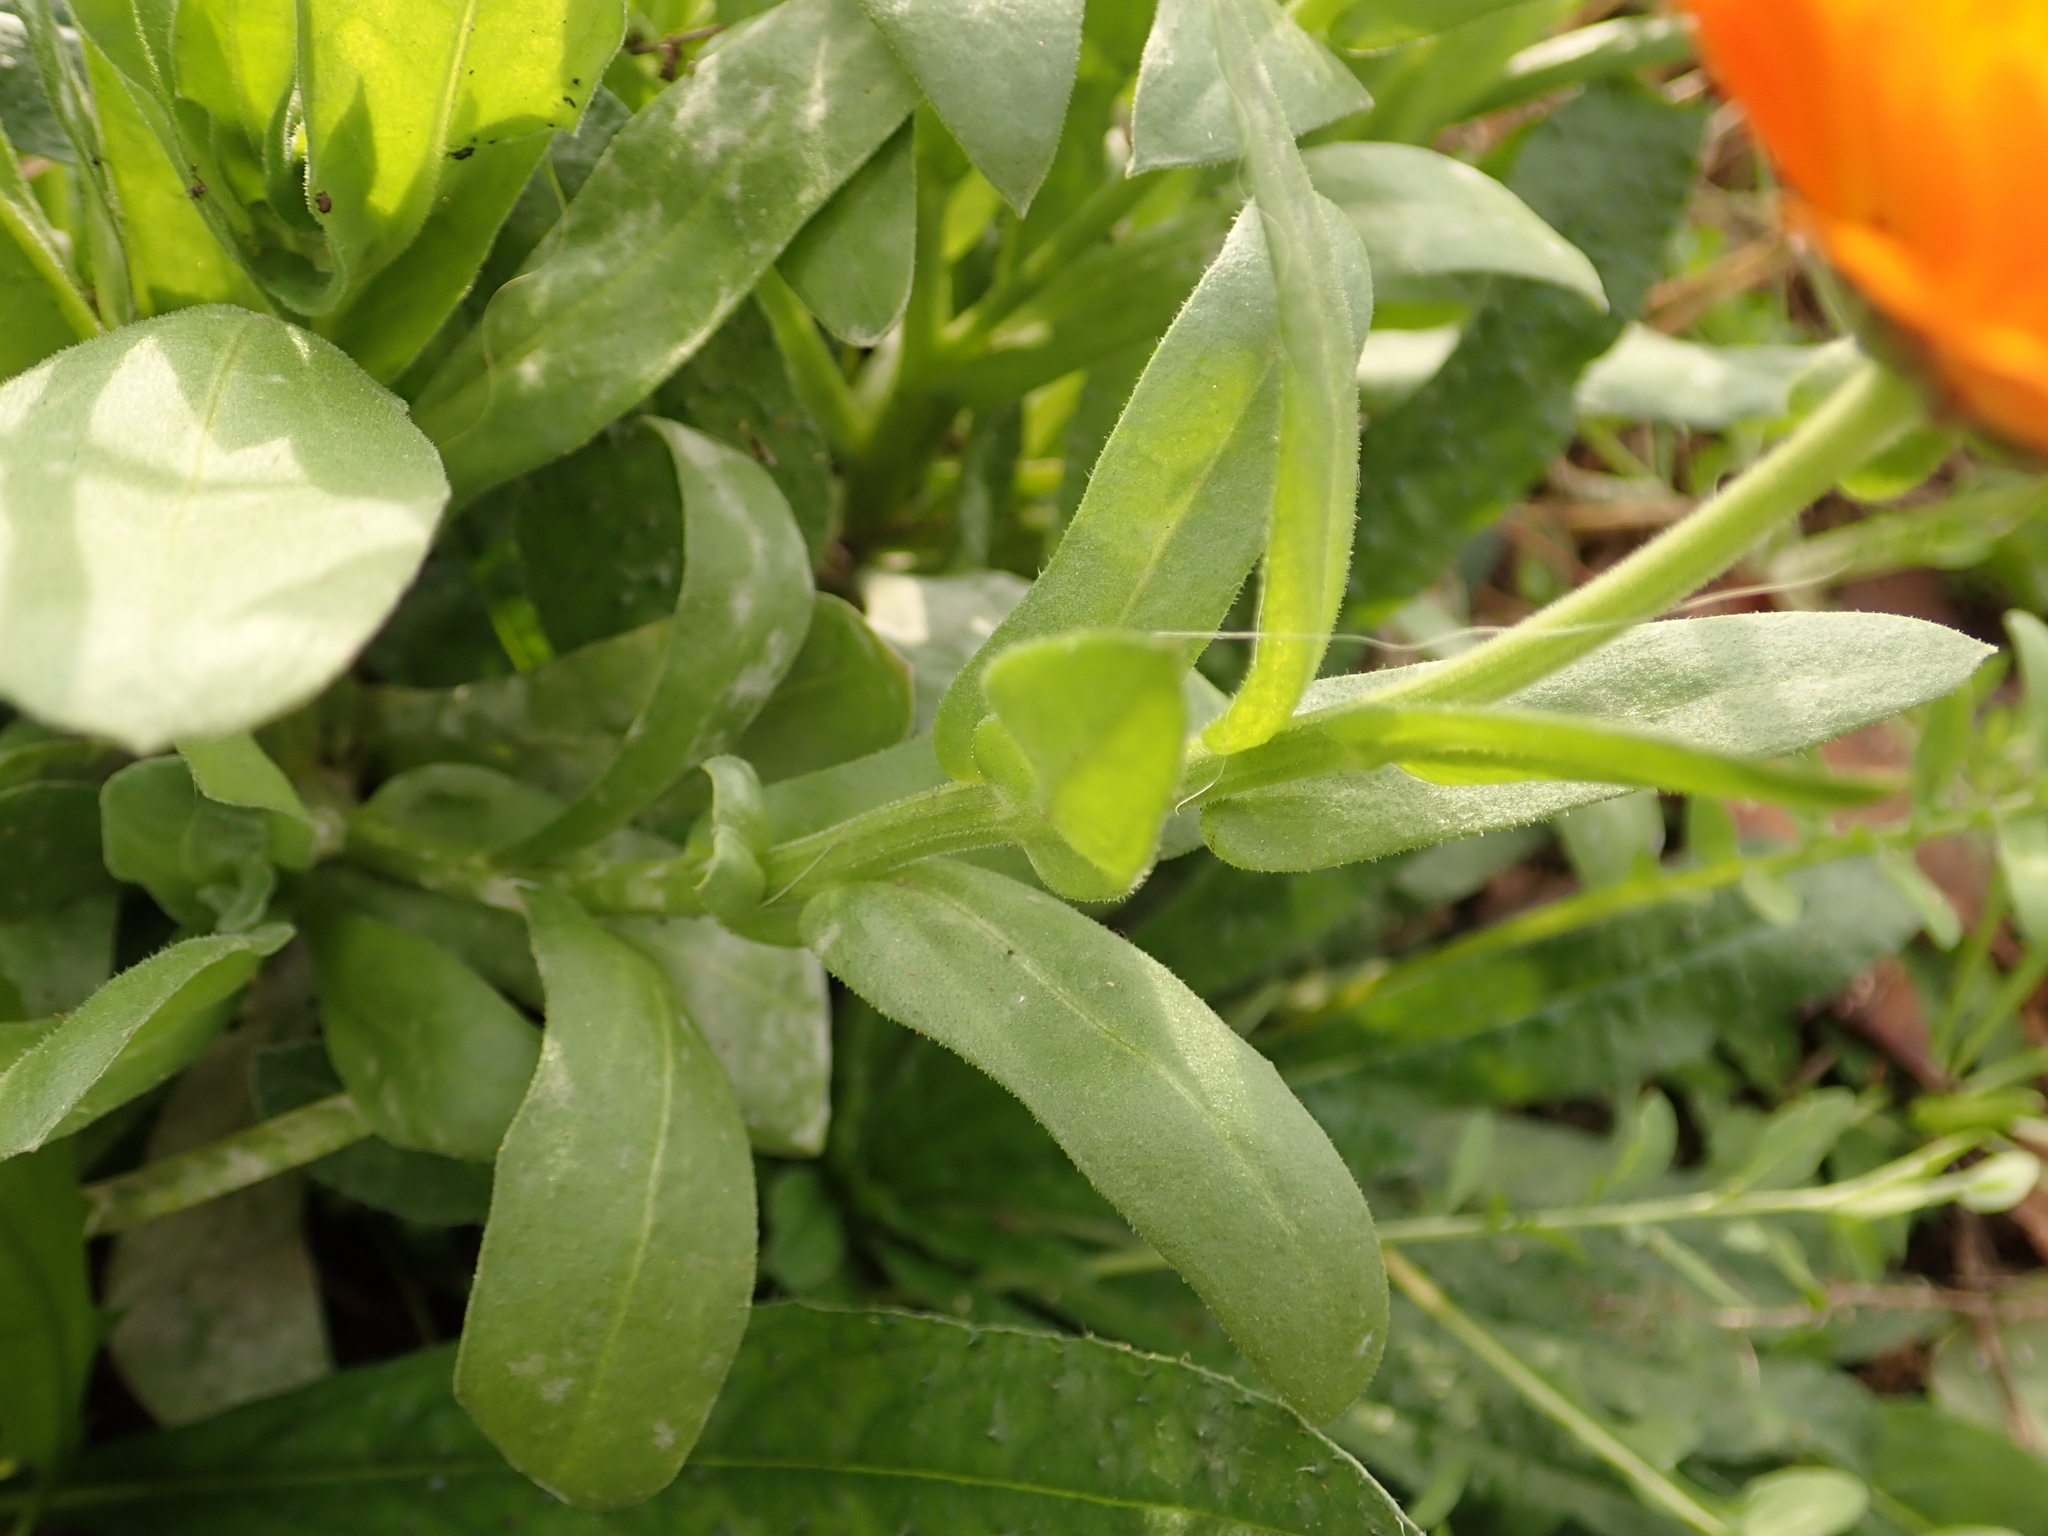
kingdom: Plantae
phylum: Tracheophyta
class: Magnoliopsida
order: Asterales
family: Asteraceae
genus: Calendula
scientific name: Calendula officinalis
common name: Pot marigold
